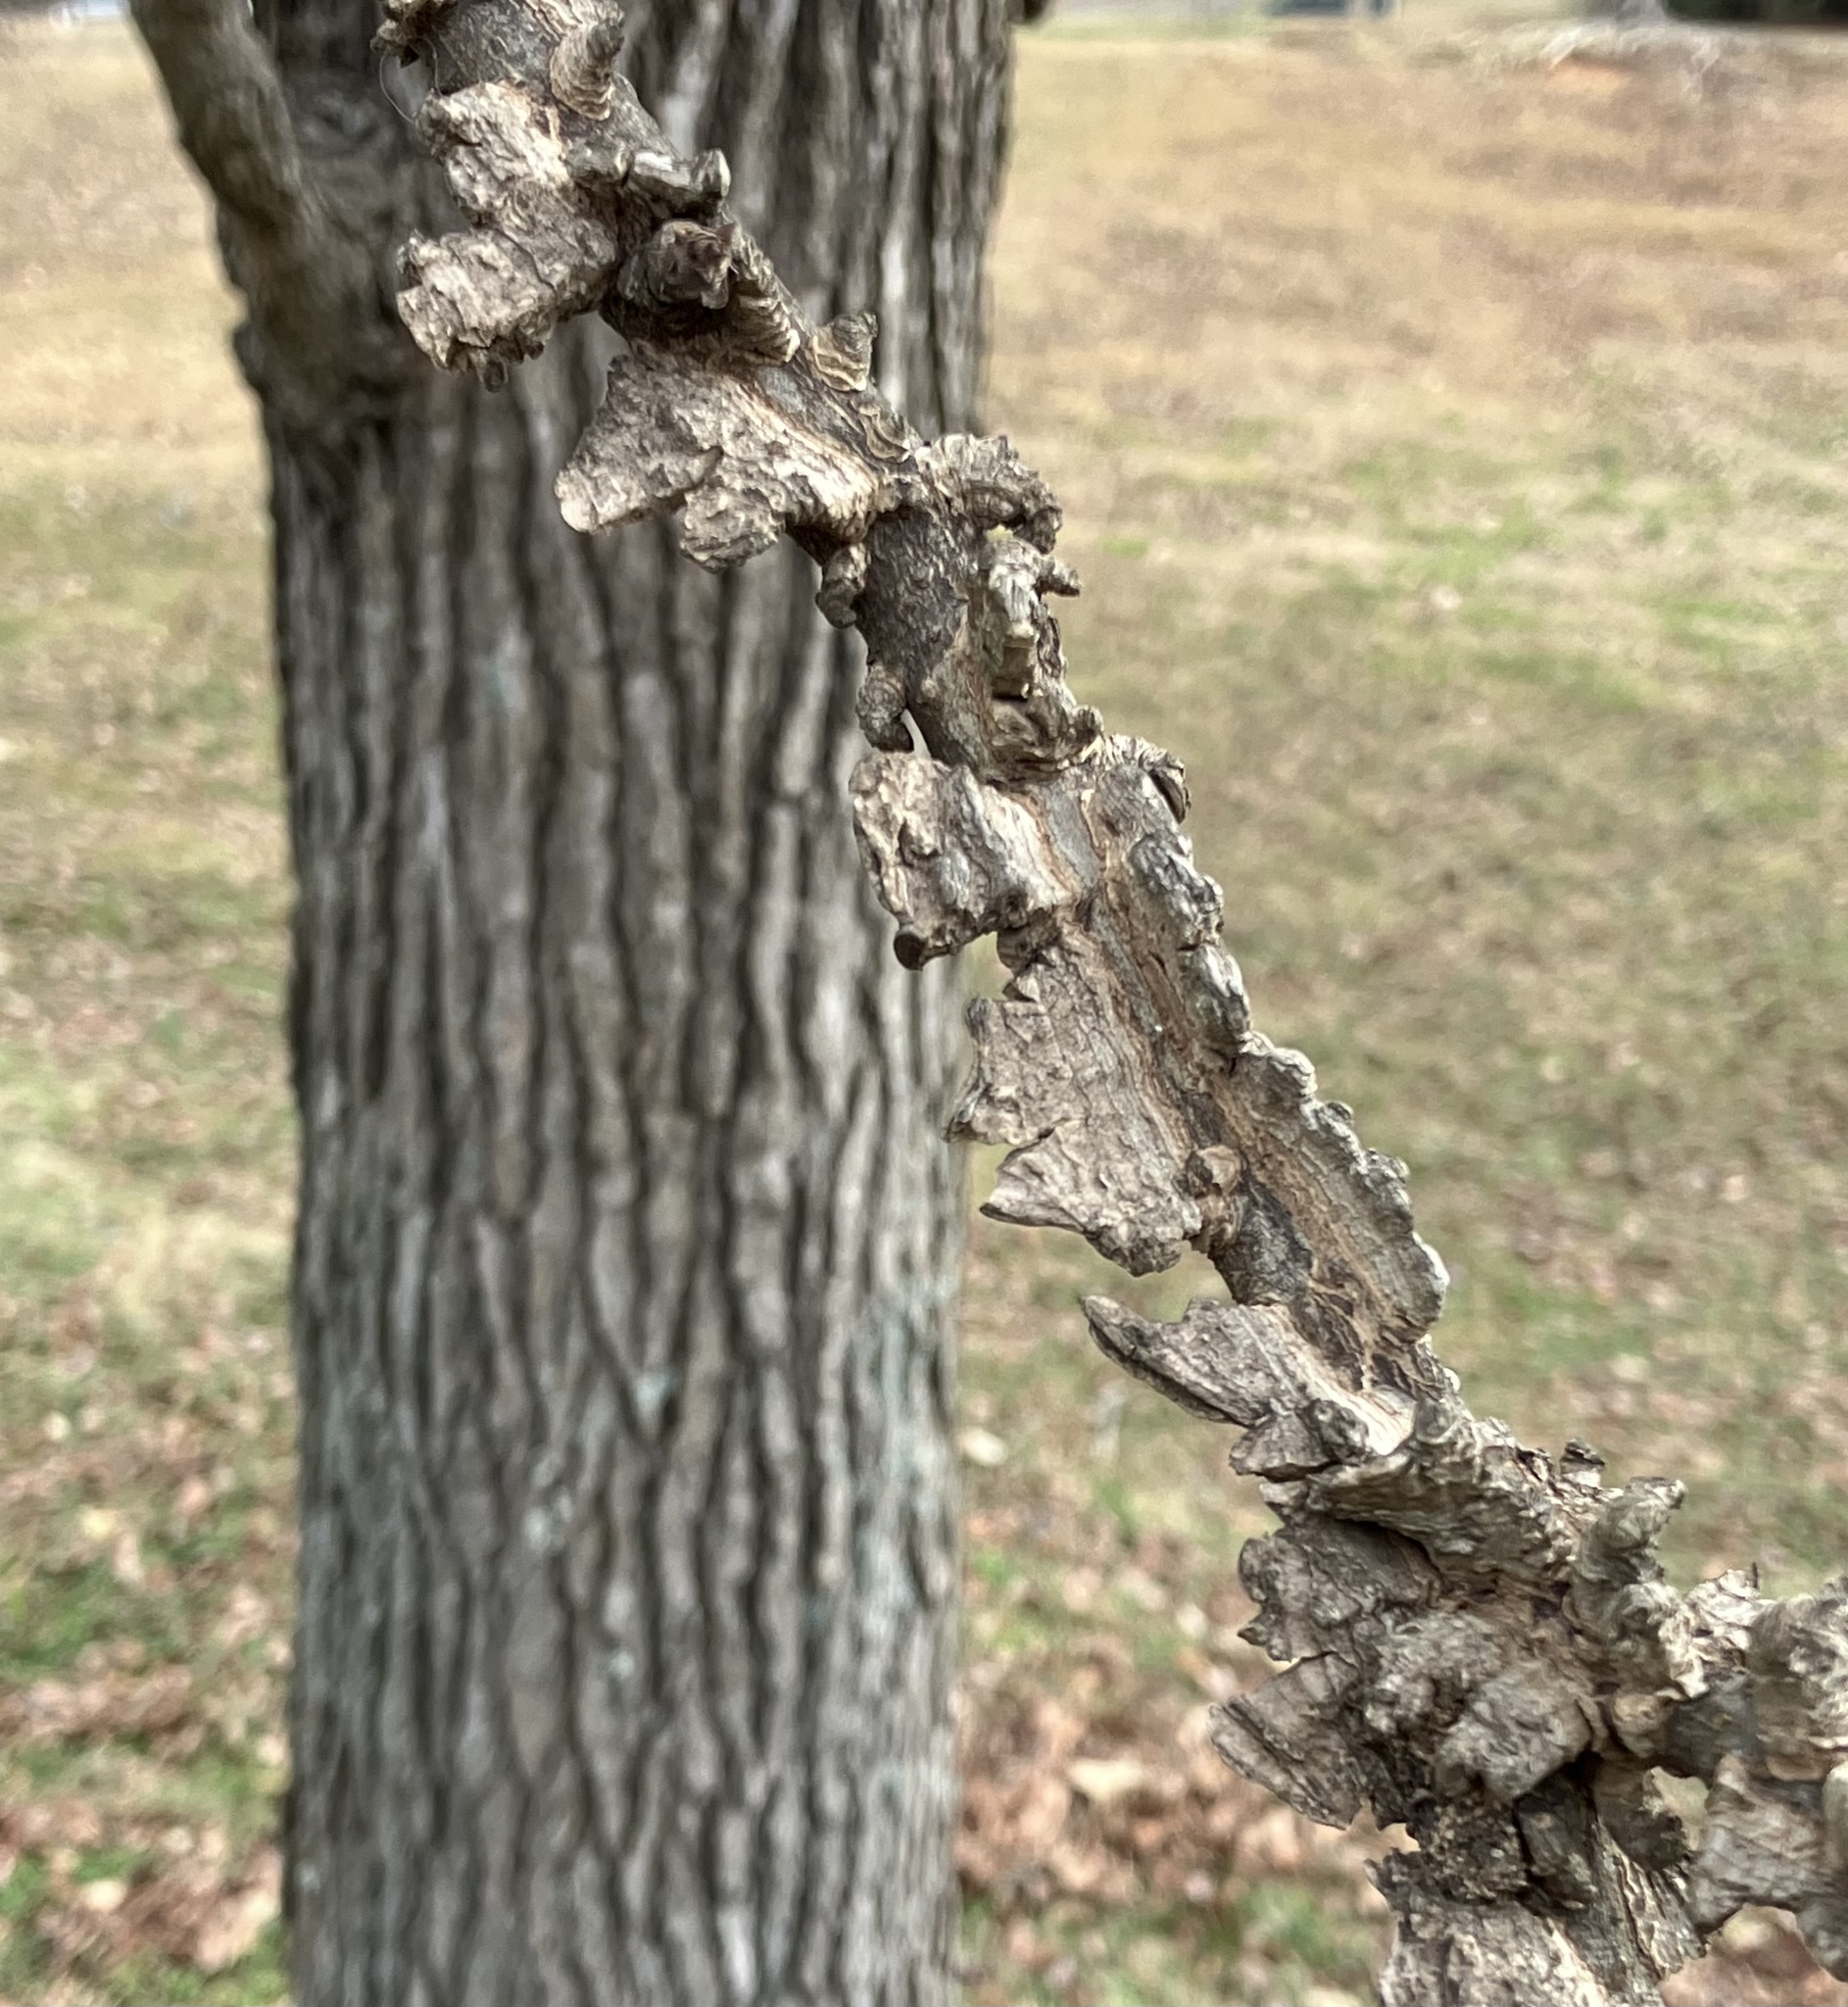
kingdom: Plantae
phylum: Tracheophyta
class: Magnoliopsida
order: Saxifragales
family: Altingiaceae
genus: Liquidambar
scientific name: Liquidambar styraciflua
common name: Sweet gum
